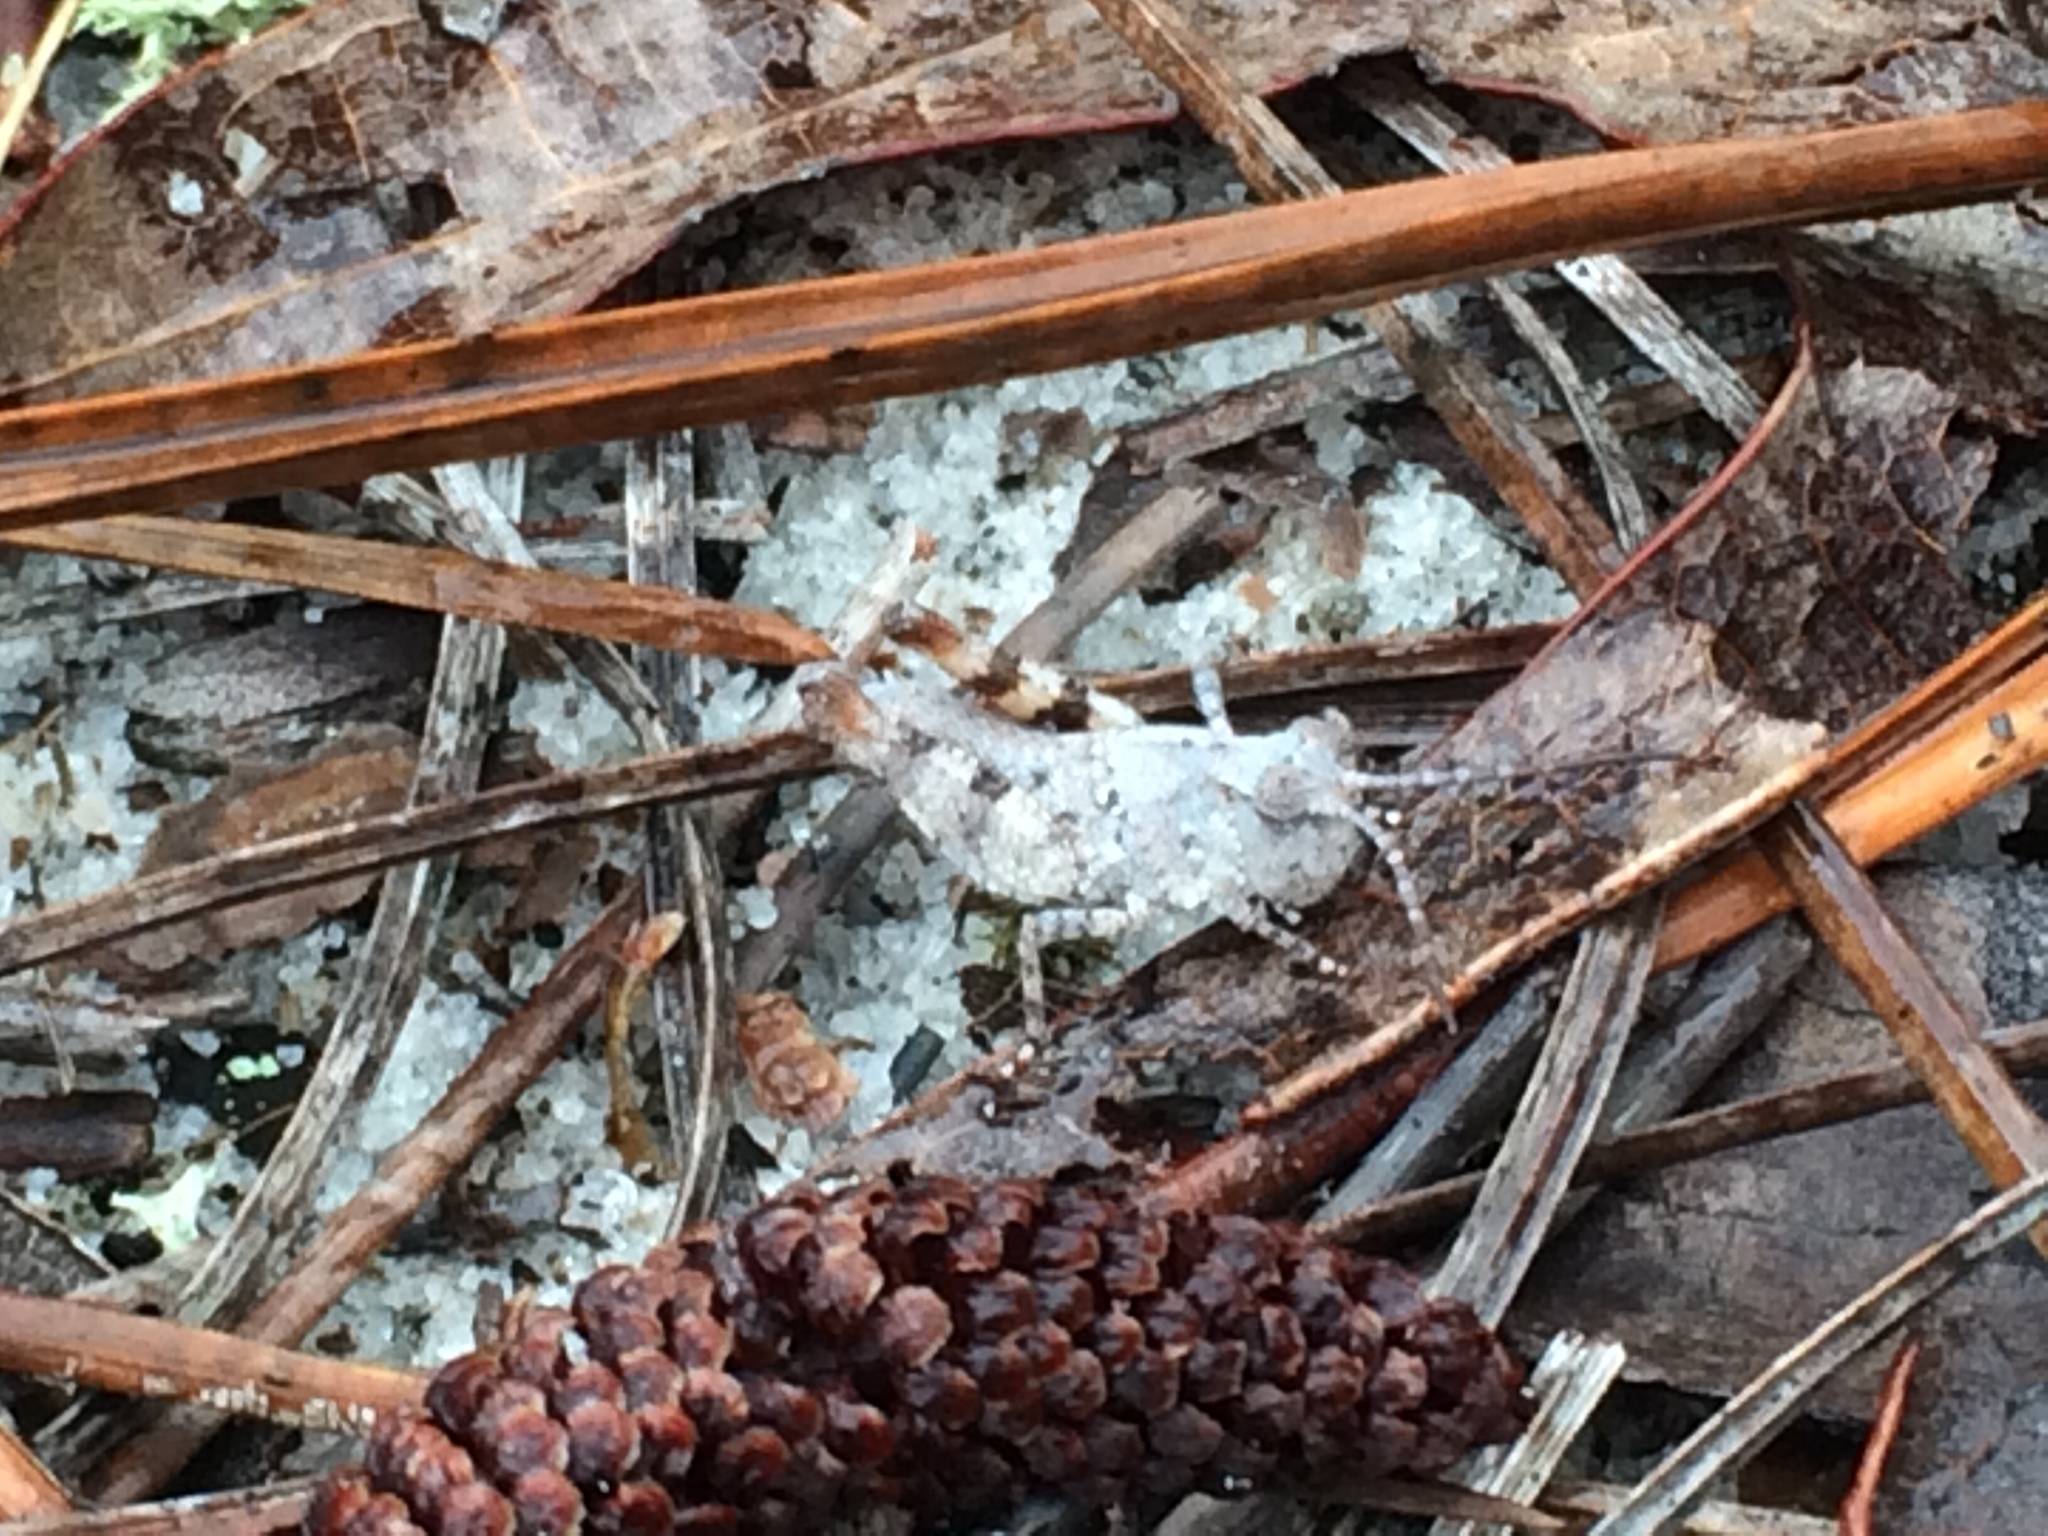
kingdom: Animalia
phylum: Arthropoda
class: Insecta
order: Orthoptera
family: Acrididae
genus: Spharagemon
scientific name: Spharagemon marmoratum
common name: Marbled grasshopper
